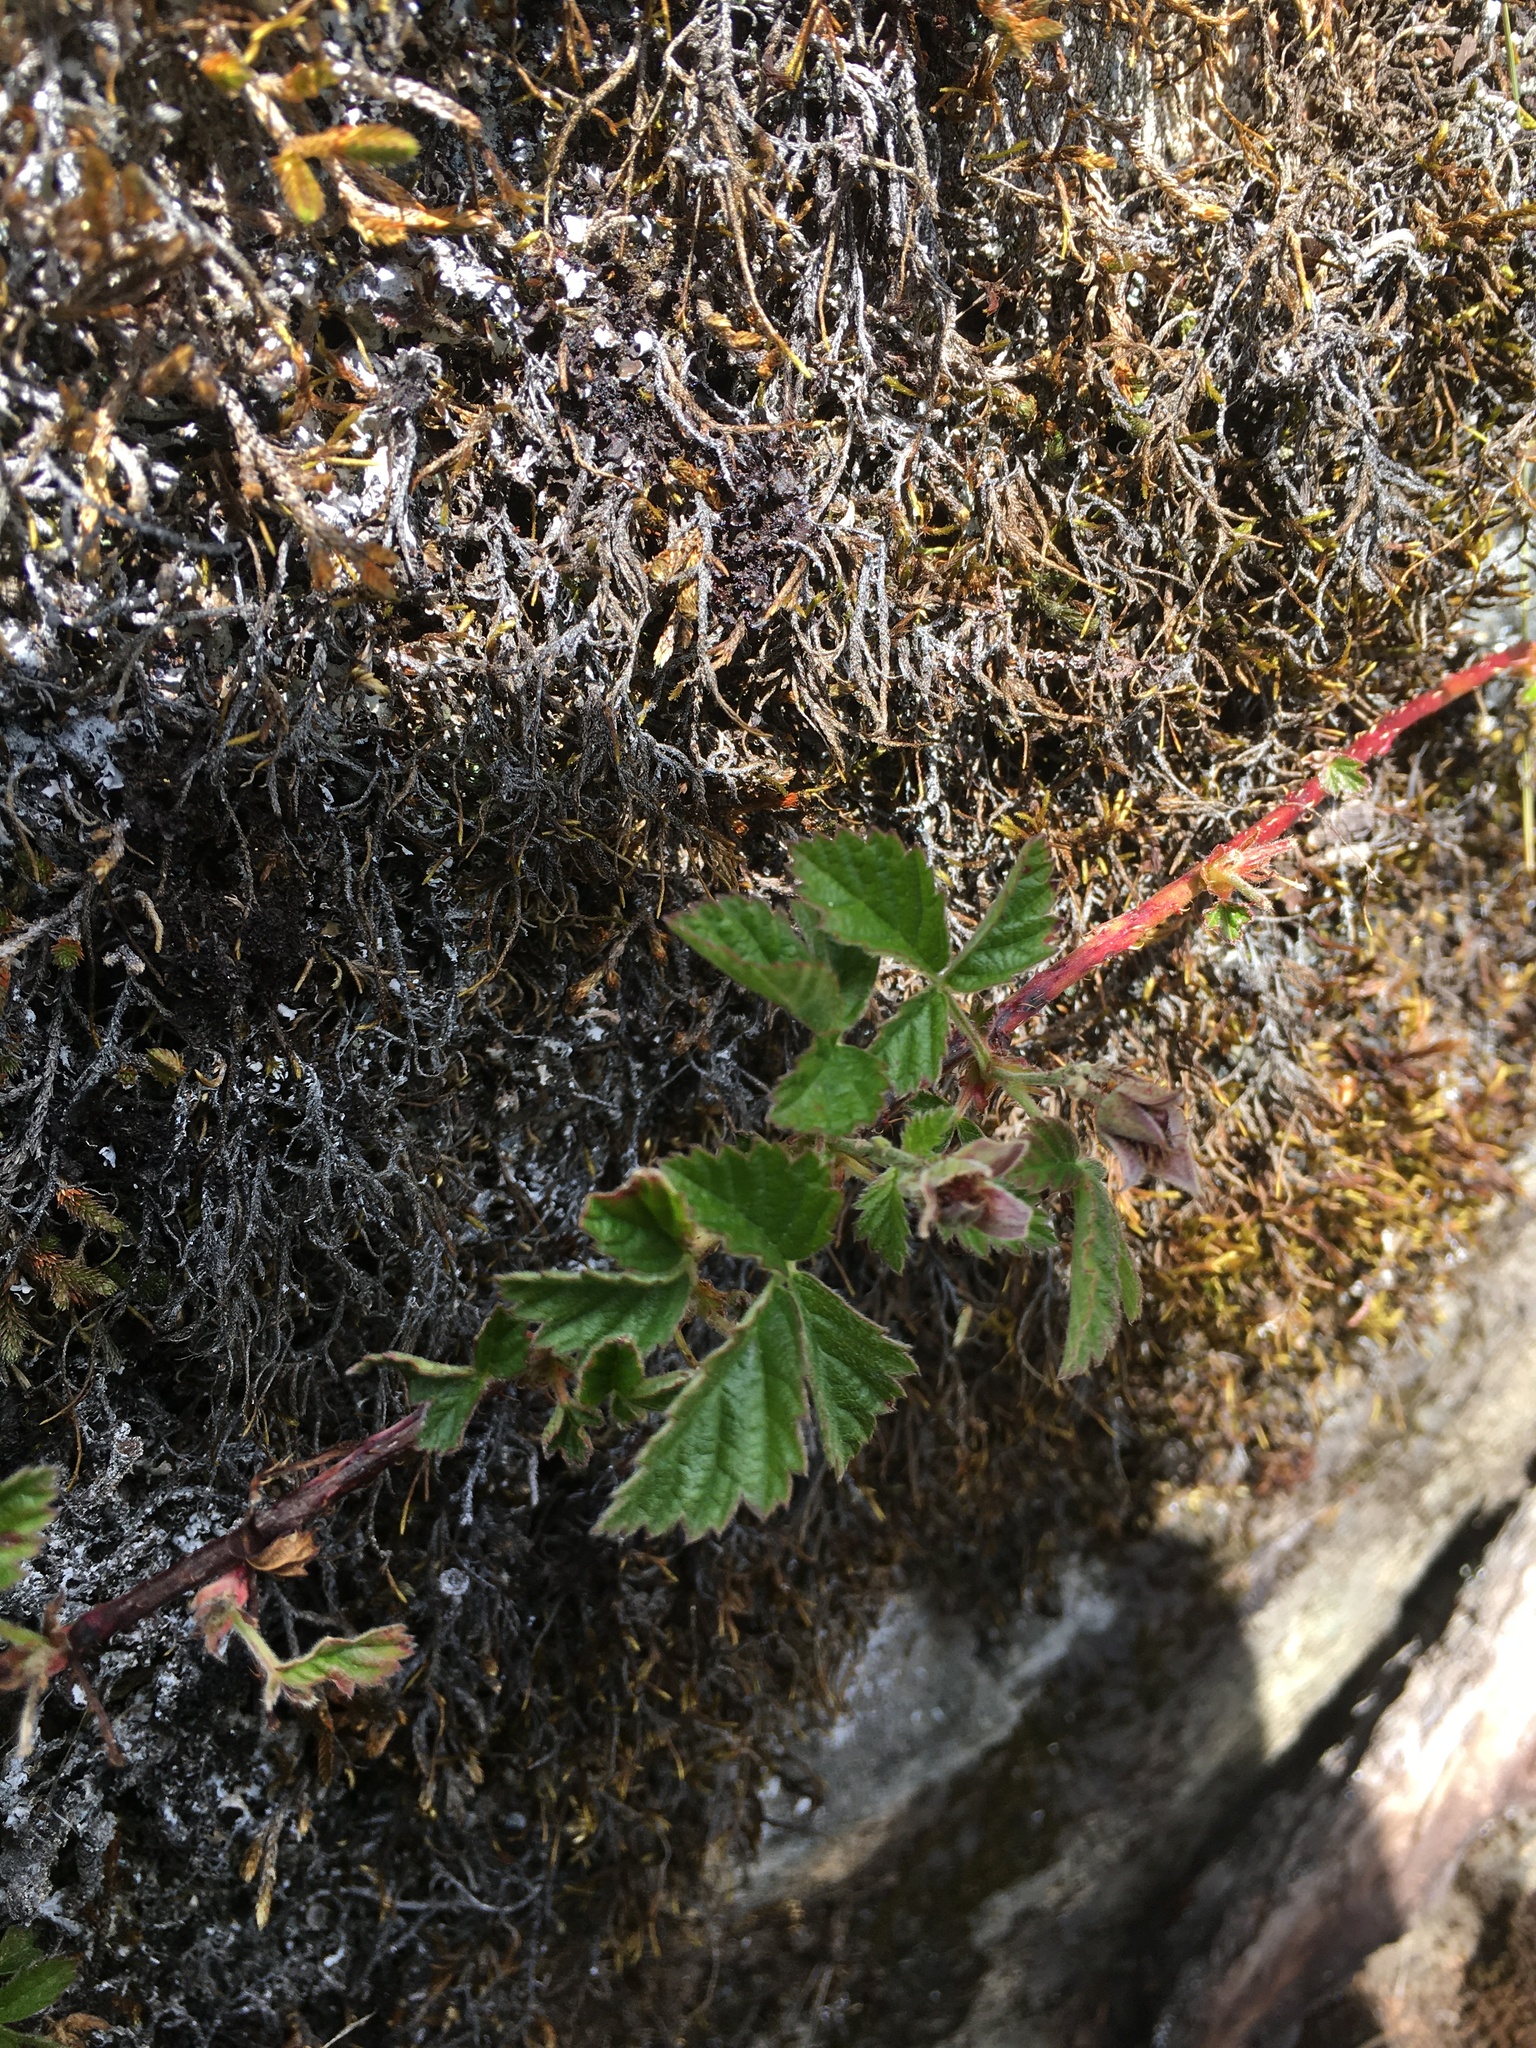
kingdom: Plantae
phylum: Tracheophyta
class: Magnoliopsida
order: Rosales
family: Rosaceae
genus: Rubus
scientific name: Rubus ursinus
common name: Pacific blackberry
